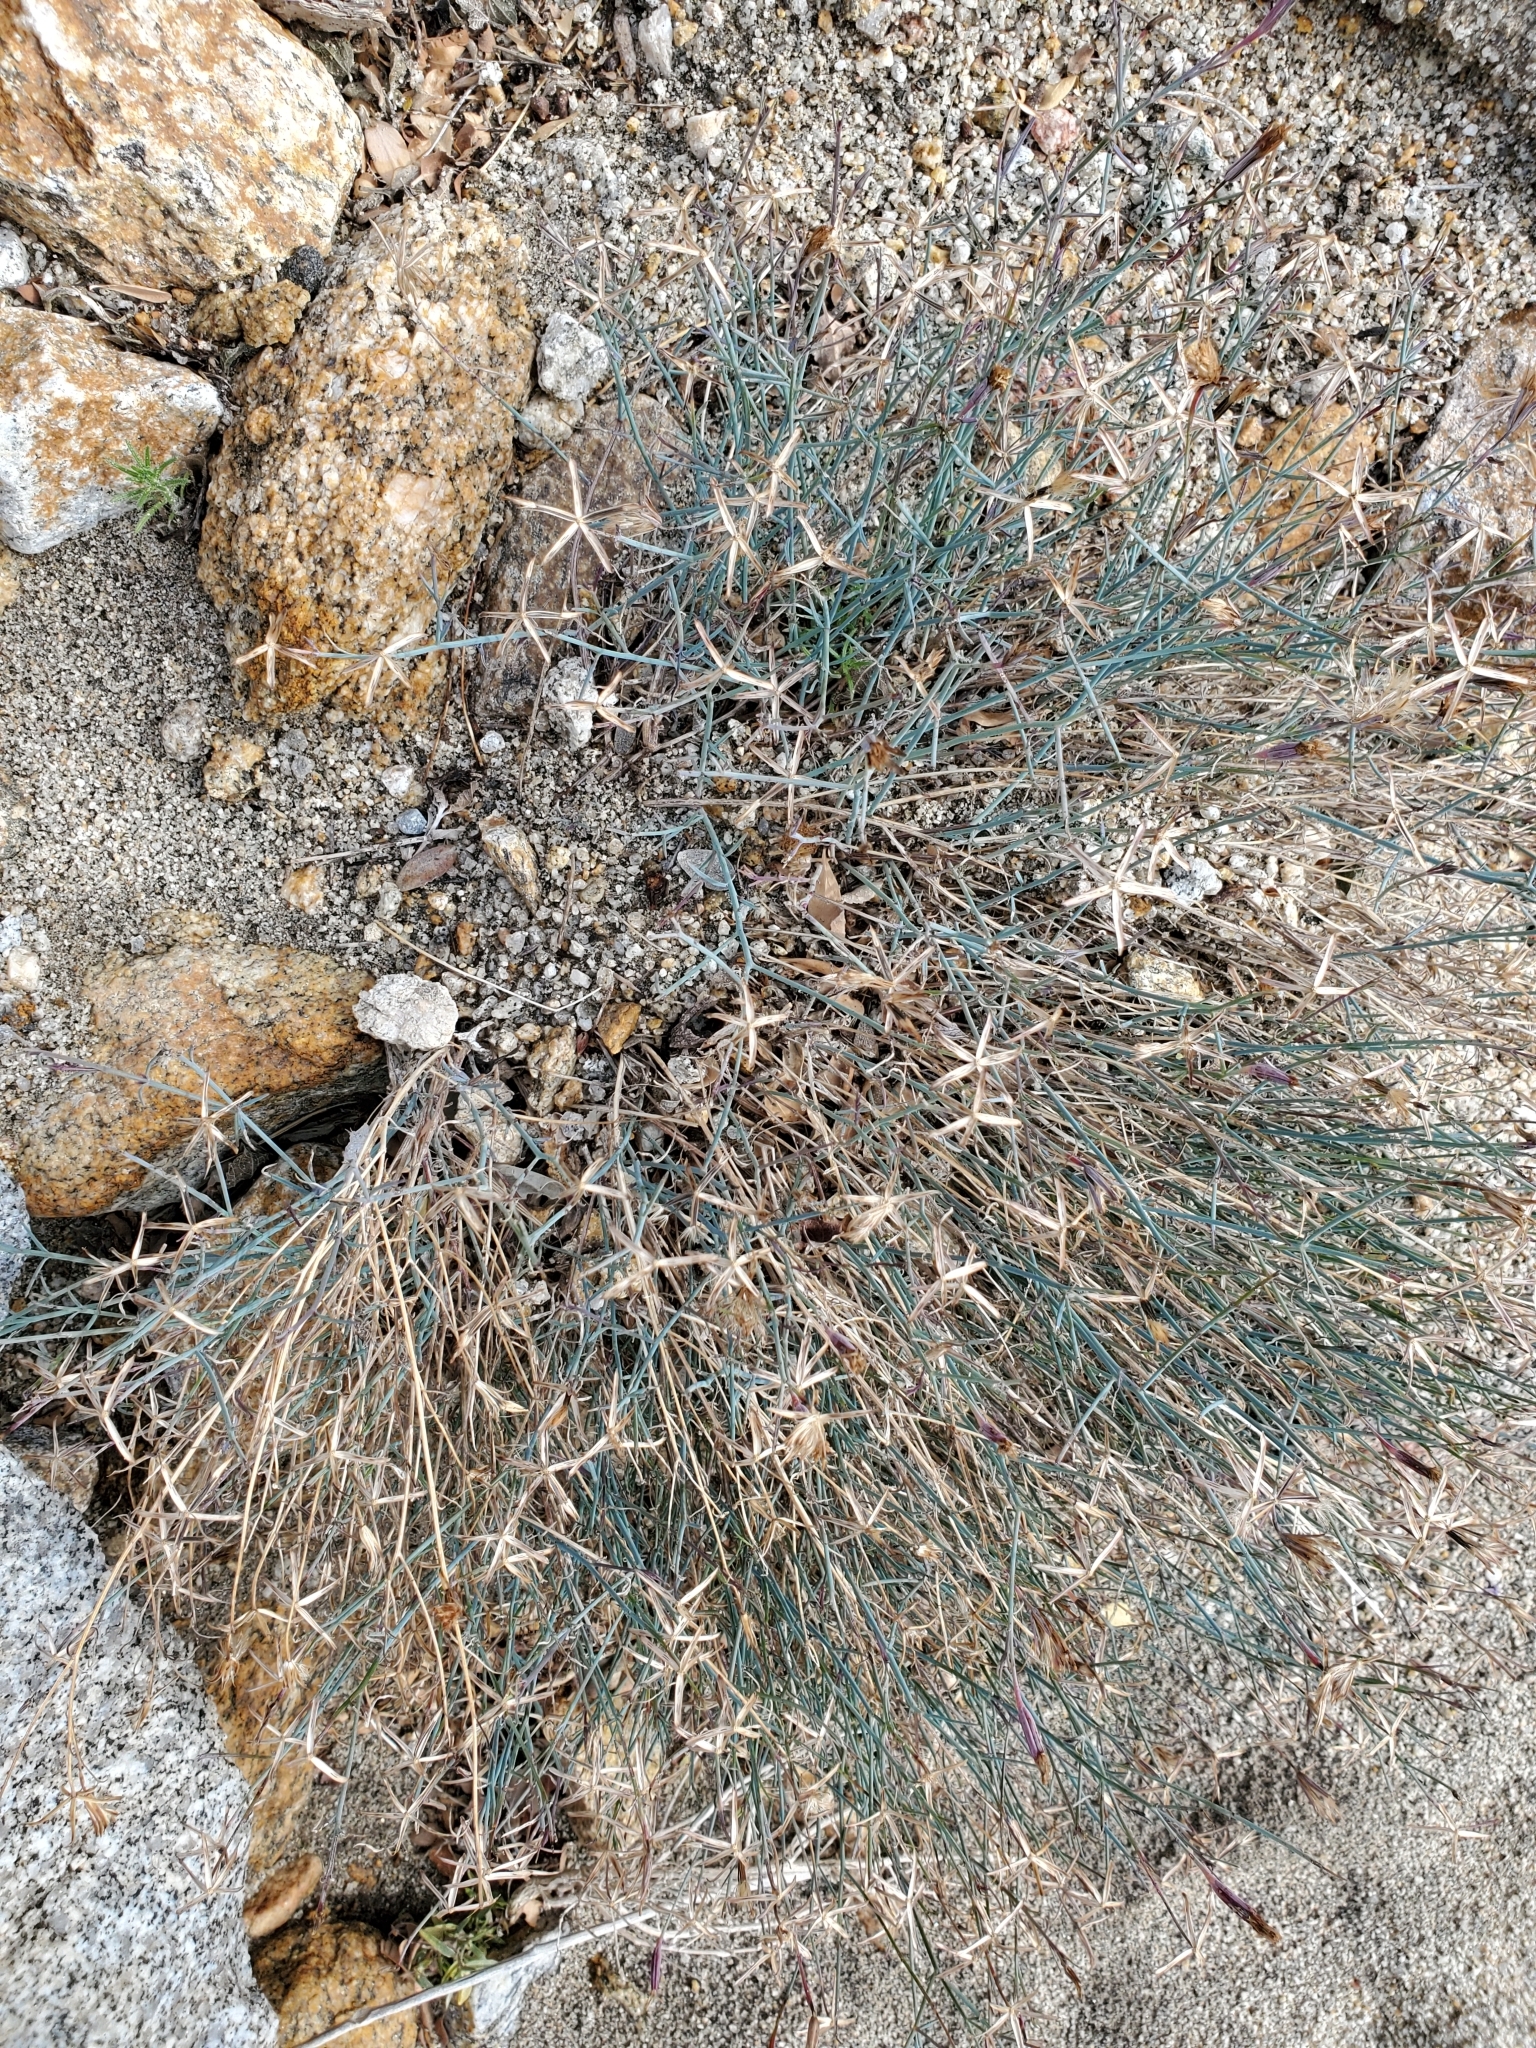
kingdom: Plantae
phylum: Tracheophyta
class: Magnoliopsida
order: Asterales
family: Asteraceae
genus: Porophyllum
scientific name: Porophyllum gracile
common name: Odora
